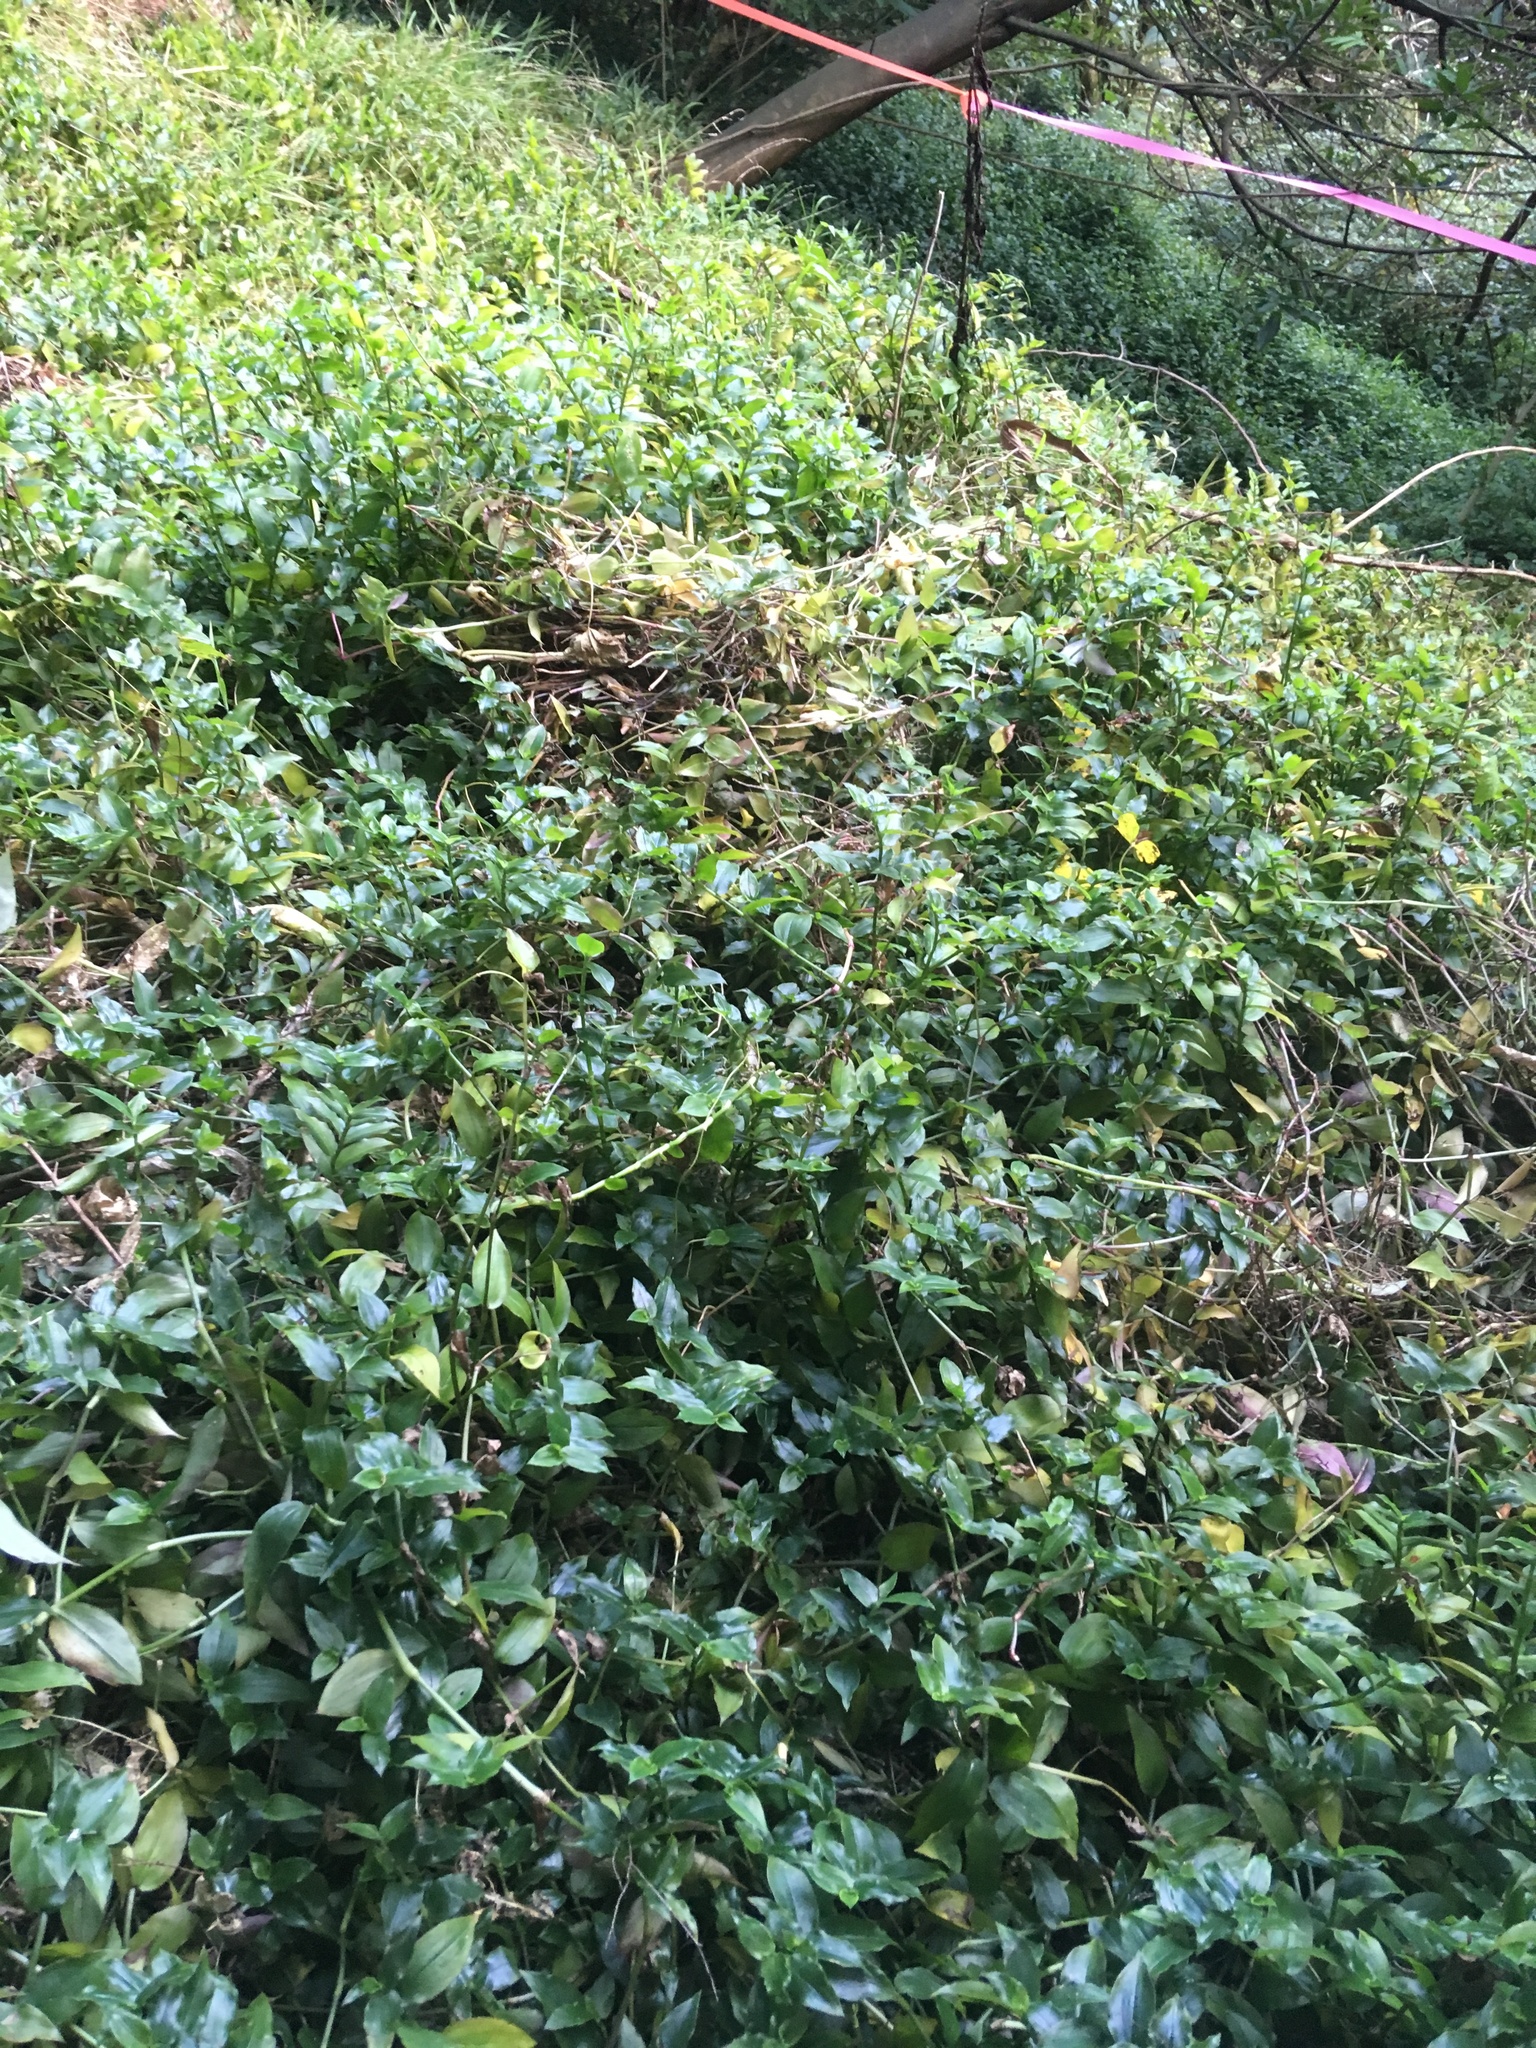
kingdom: Plantae
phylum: Tracheophyta
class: Liliopsida
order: Commelinales
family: Commelinaceae
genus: Tradescantia
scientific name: Tradescantia fluminensis
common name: Wandering-jew
